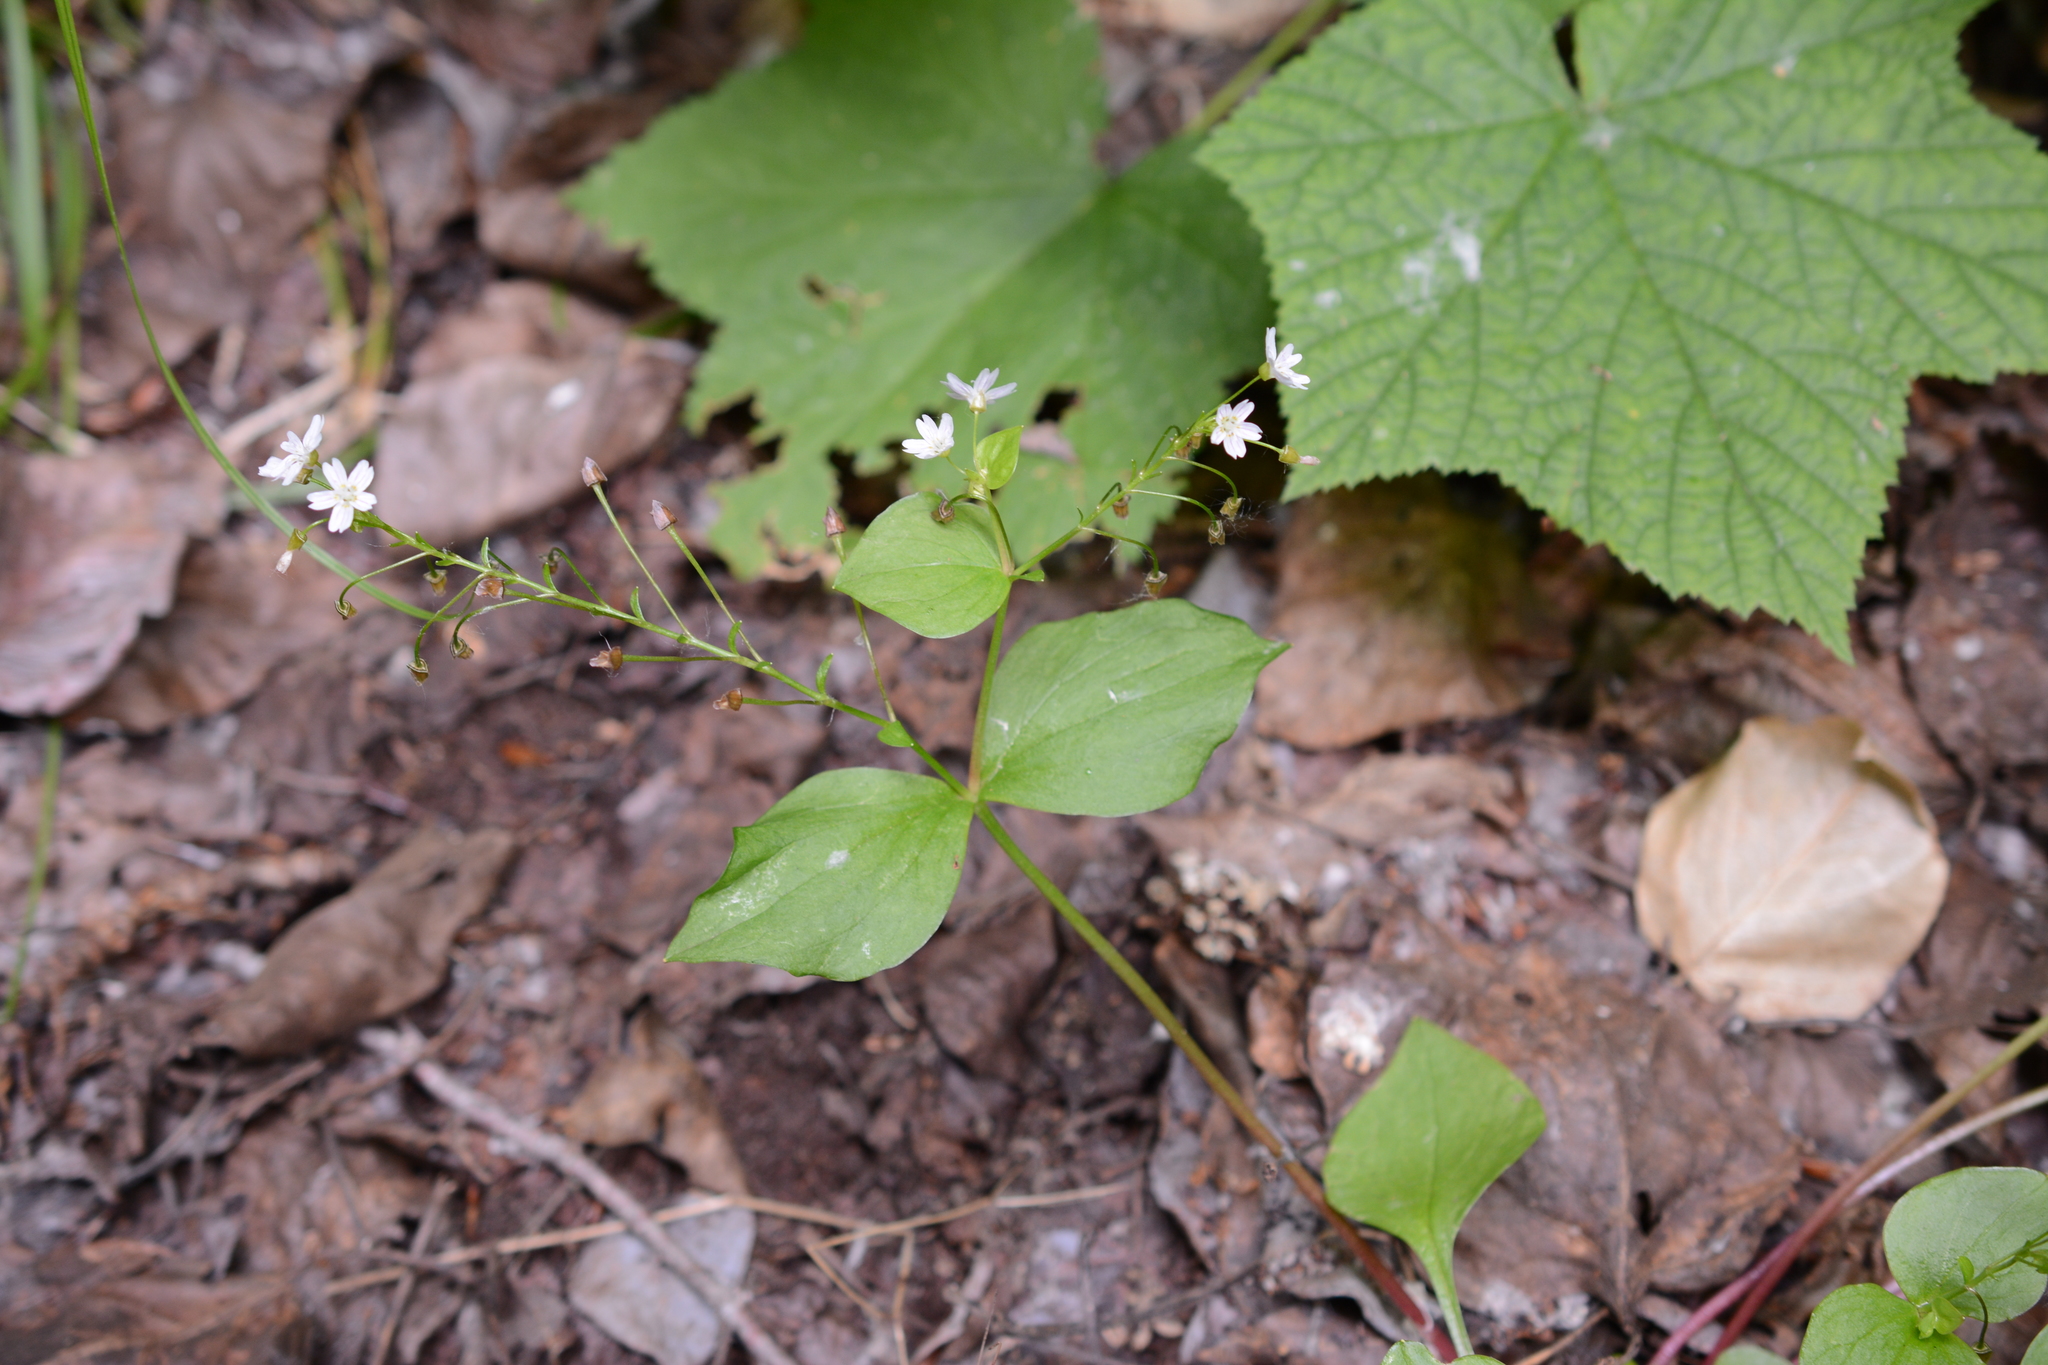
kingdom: Plantae
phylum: Tracheophyta
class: Magnoliopsida
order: Caryophyllales
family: Montiaceae
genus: Claytonia
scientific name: Claytonia sibirica
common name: Pink purslane
